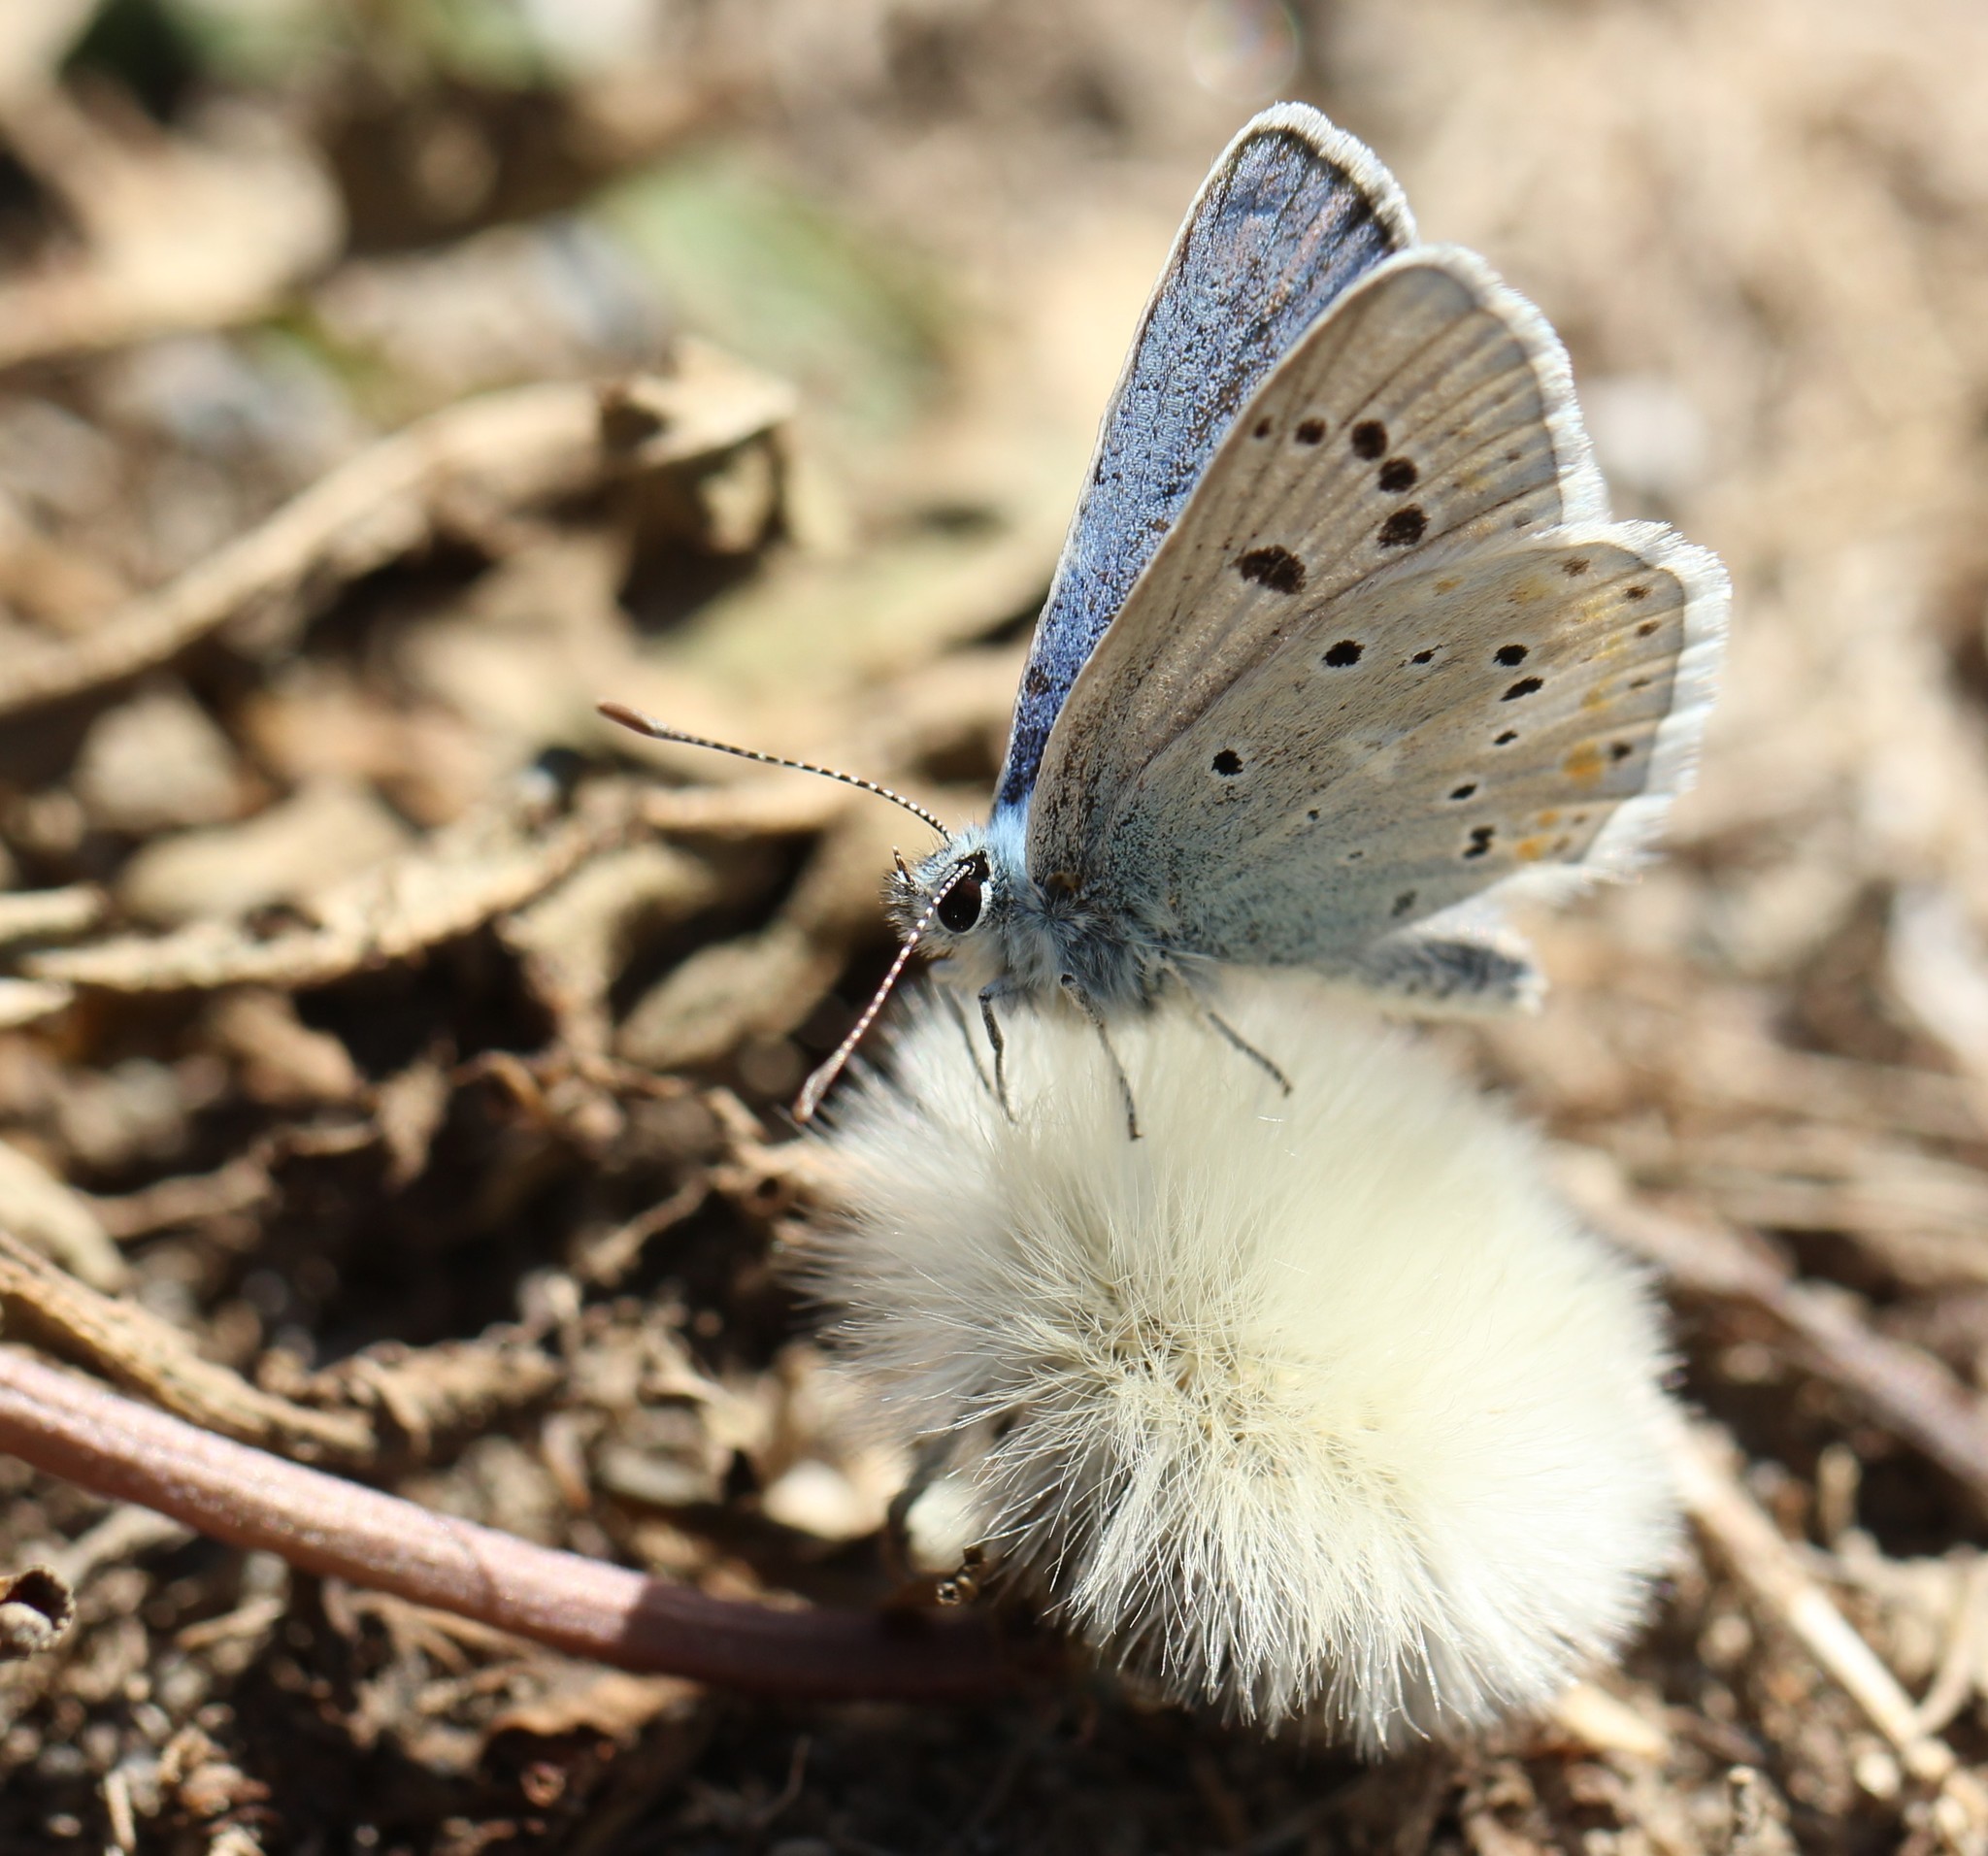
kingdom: Animalia
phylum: Arthropoda
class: Insecta
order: Lepidoptera
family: Lycaenidae
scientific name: Lycaenidae
